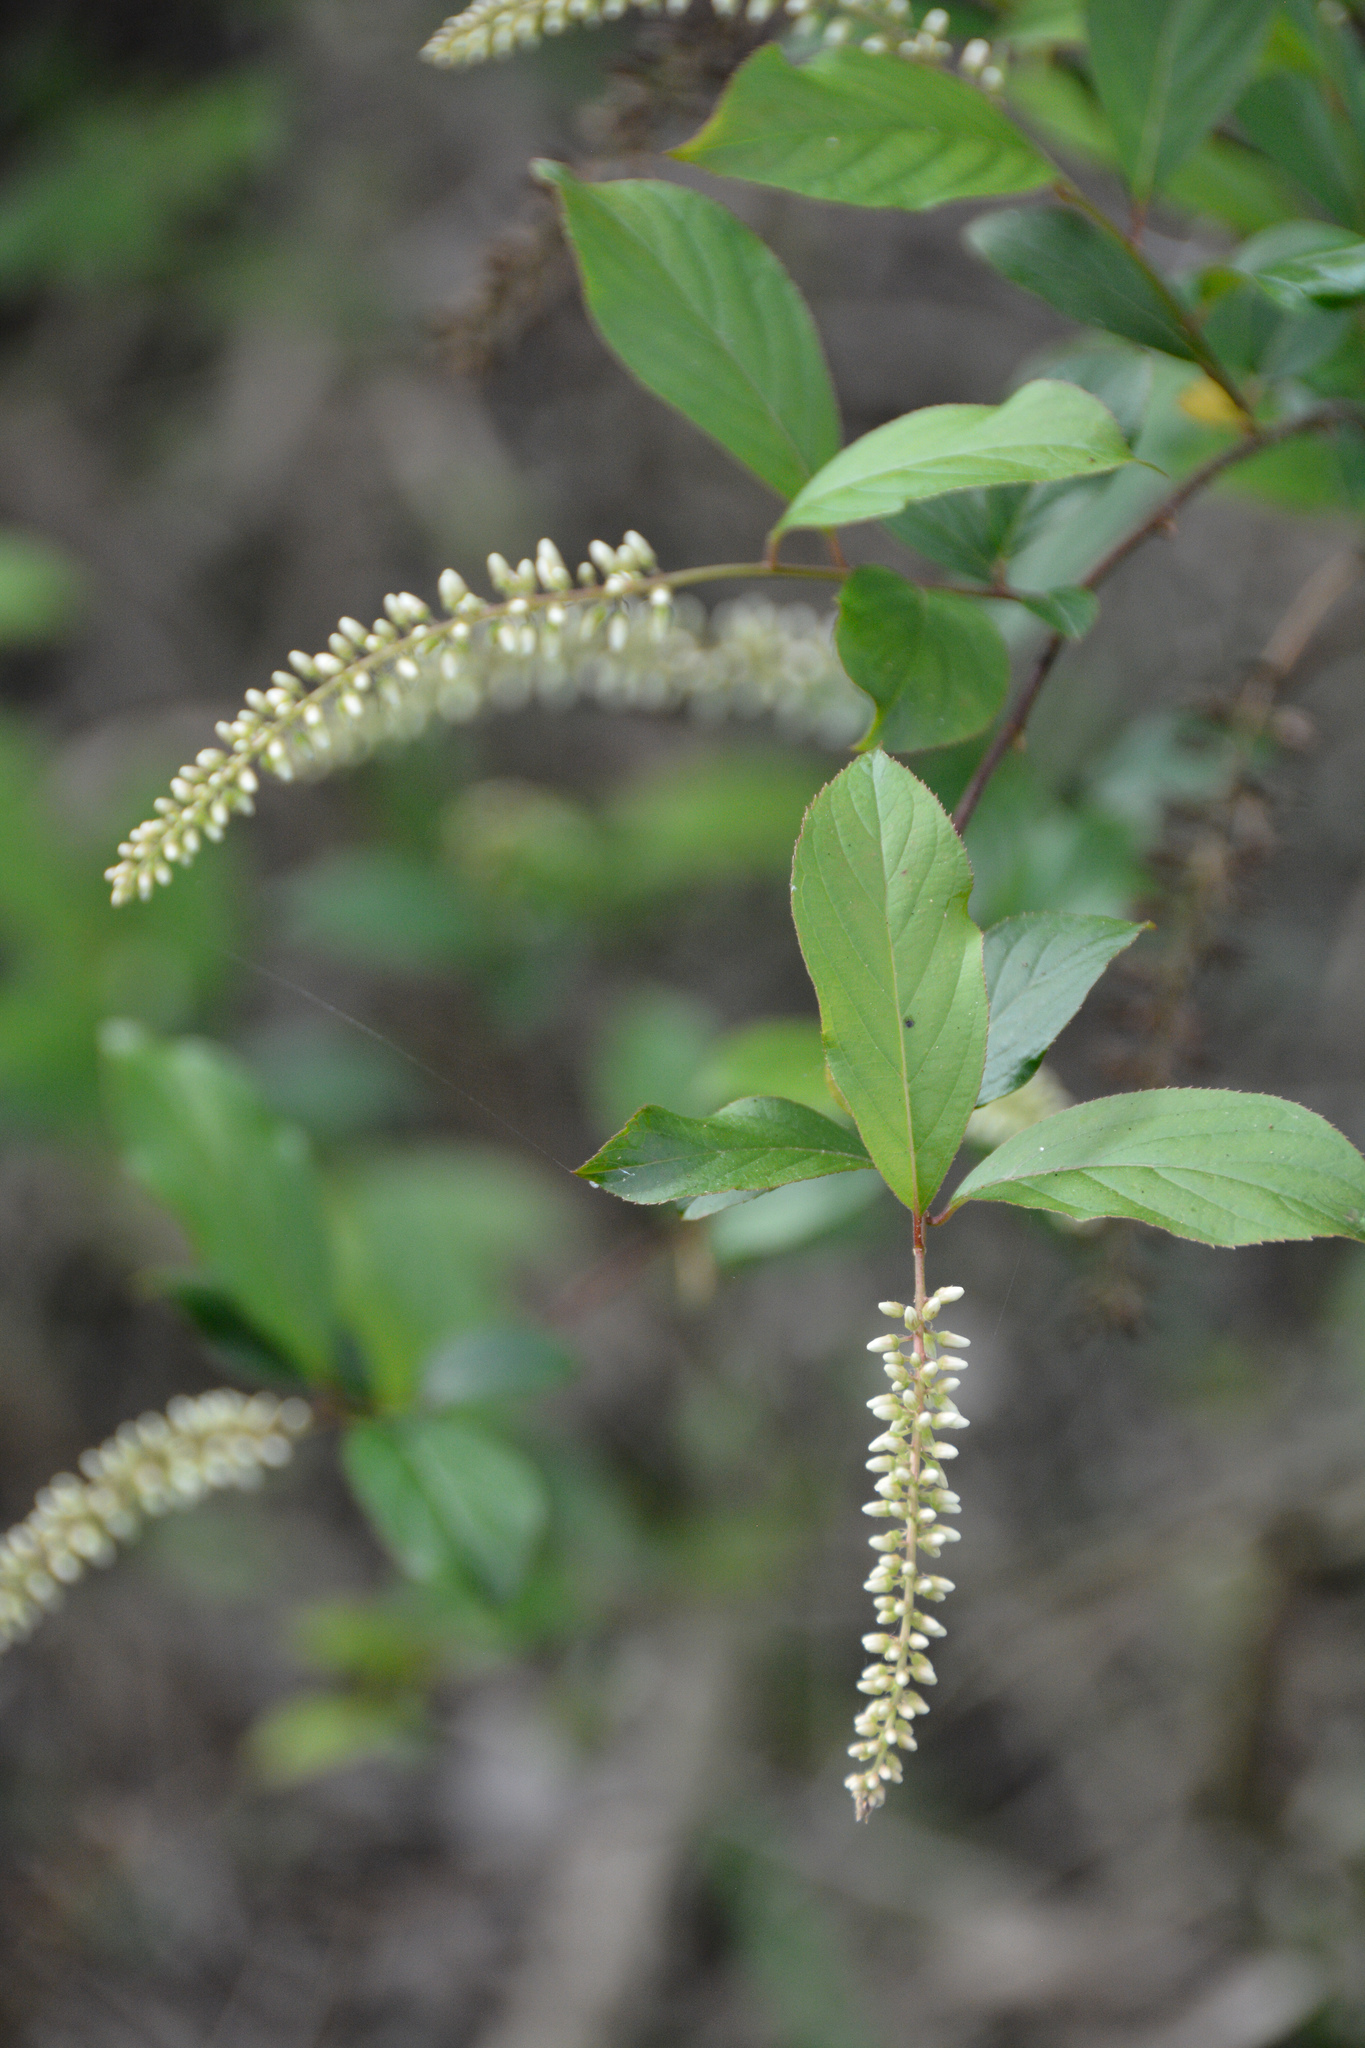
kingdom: Plantae
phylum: Tracheophyta
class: Magnoliopsida
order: Saxifragales
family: Iteaceae
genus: Itea
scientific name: Itea virginica
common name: Sweetspire
